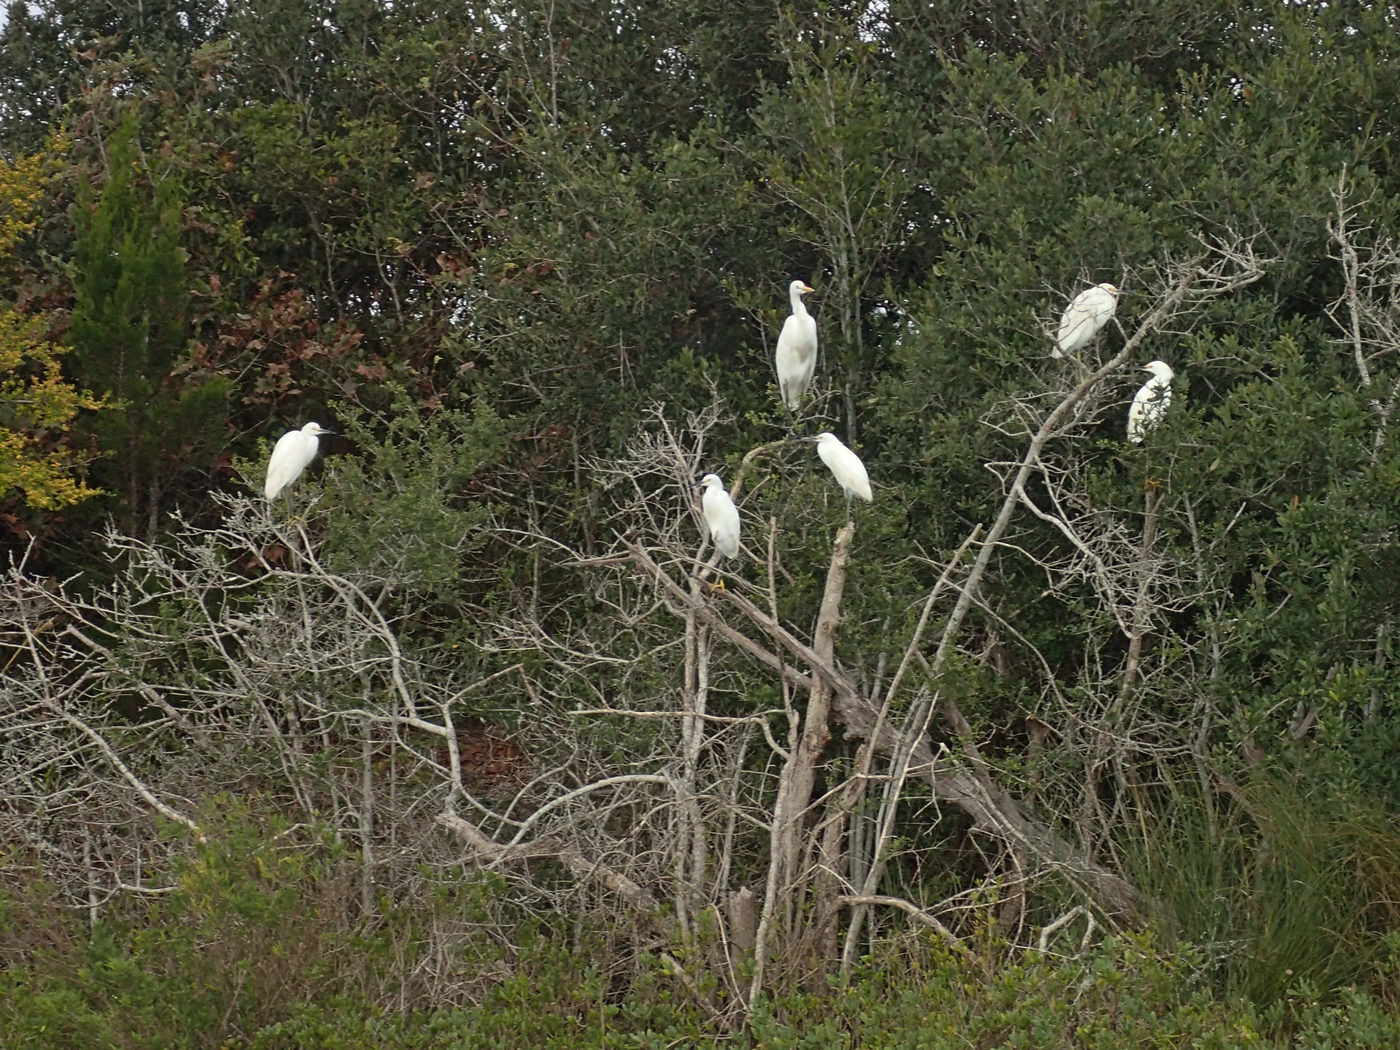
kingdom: Animalia
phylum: Chordata
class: Aves
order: Pelecaniformes
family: Ardeidae
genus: Ardea
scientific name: Ardea alba
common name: Great egret
